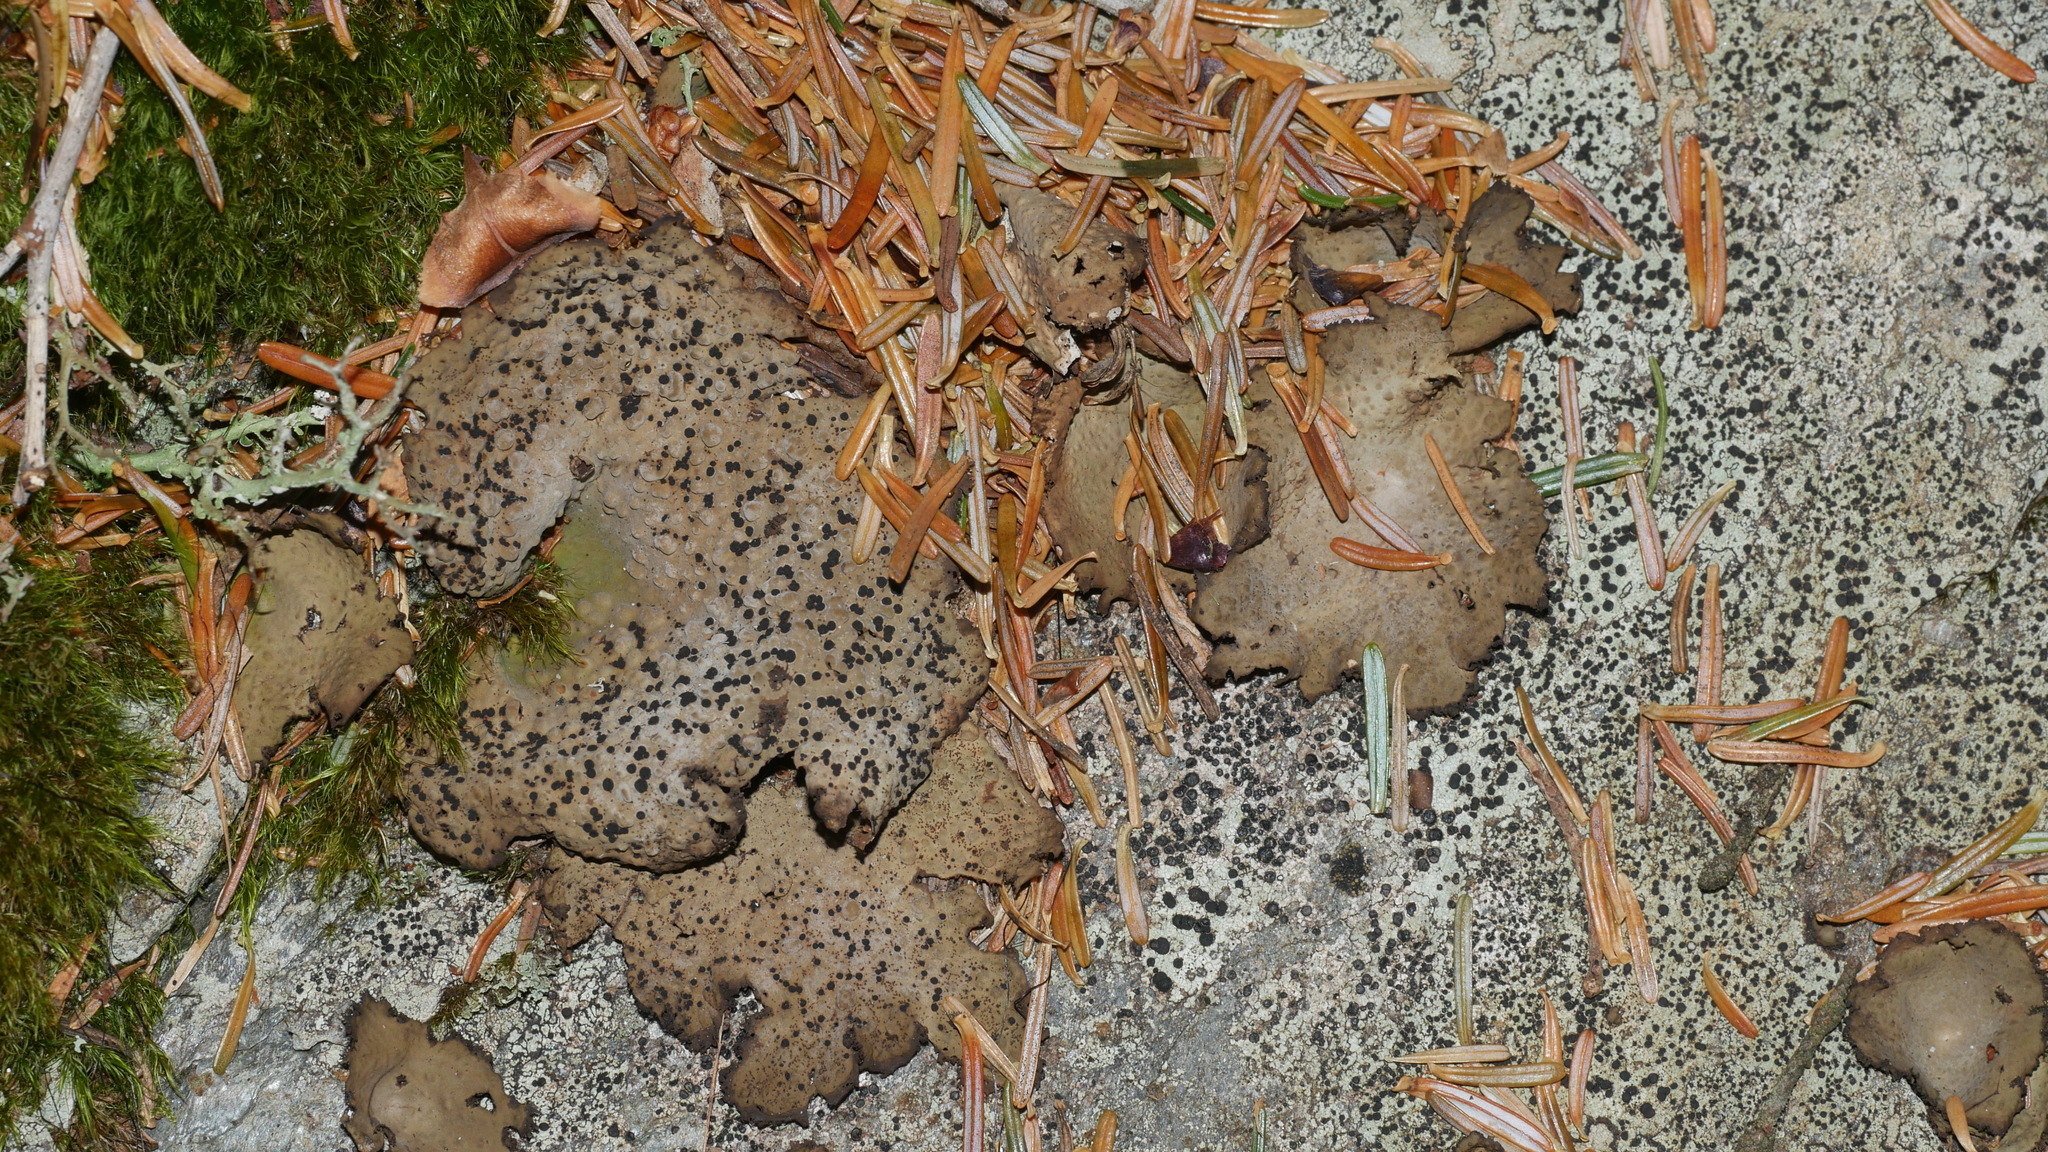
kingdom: Fungi
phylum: Ascomycota
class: Lecanoromycetes
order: Umbilicariales
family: Umbilicariaceae
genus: Lasallia
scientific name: Lasallia pensylvanica
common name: Blackened toadskin lichen
